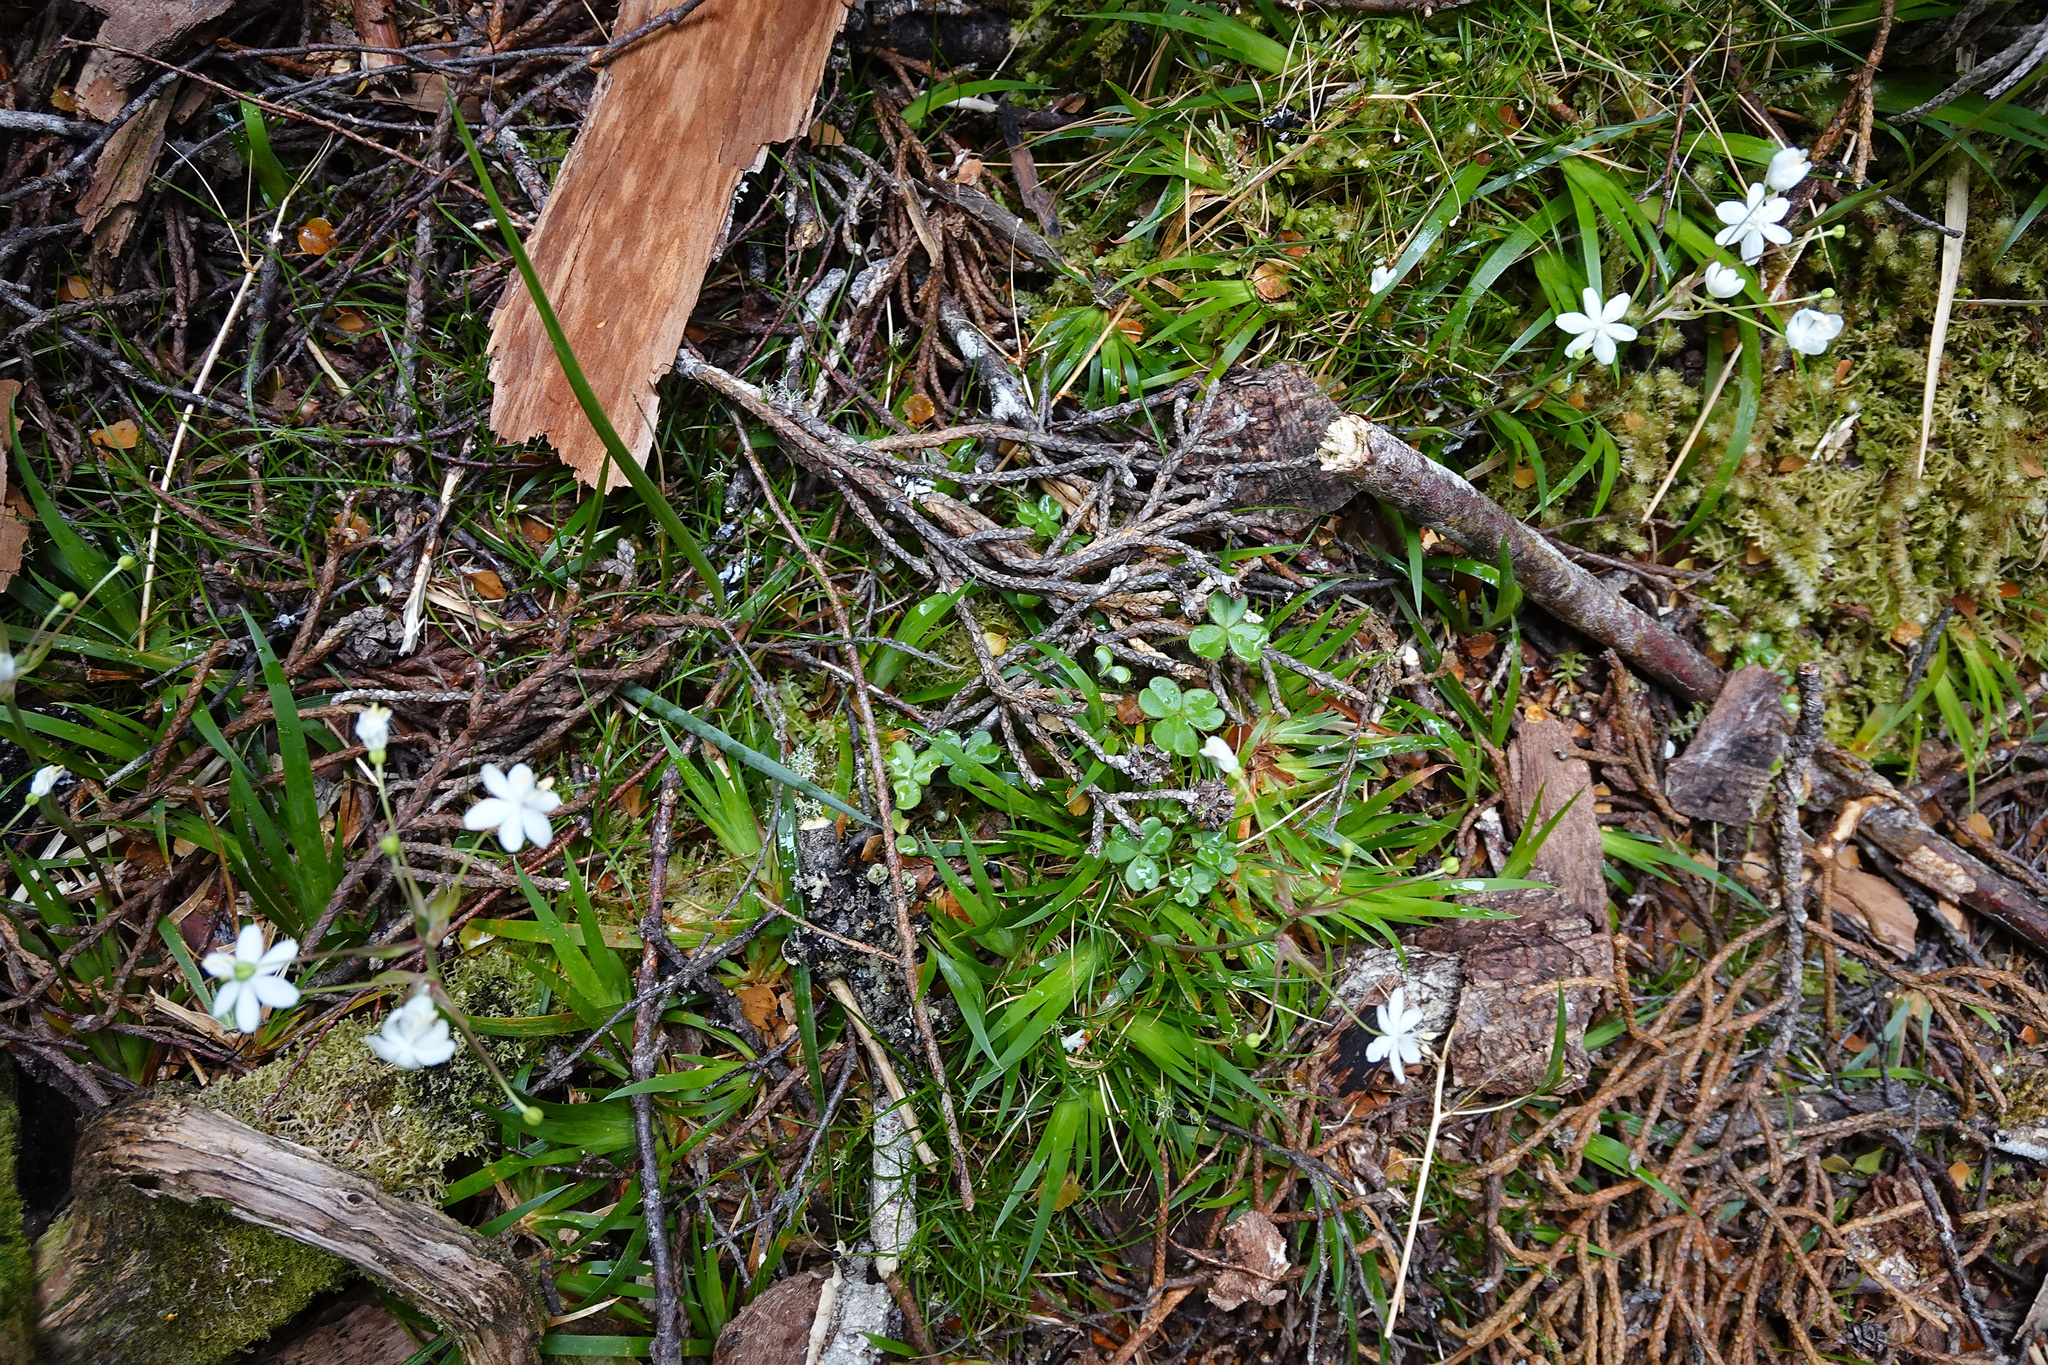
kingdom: Plantae
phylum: Tracheophyta
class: Liliopsida
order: Asparagales
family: Iridaceae
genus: Libertia
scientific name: Libertia pulchella
